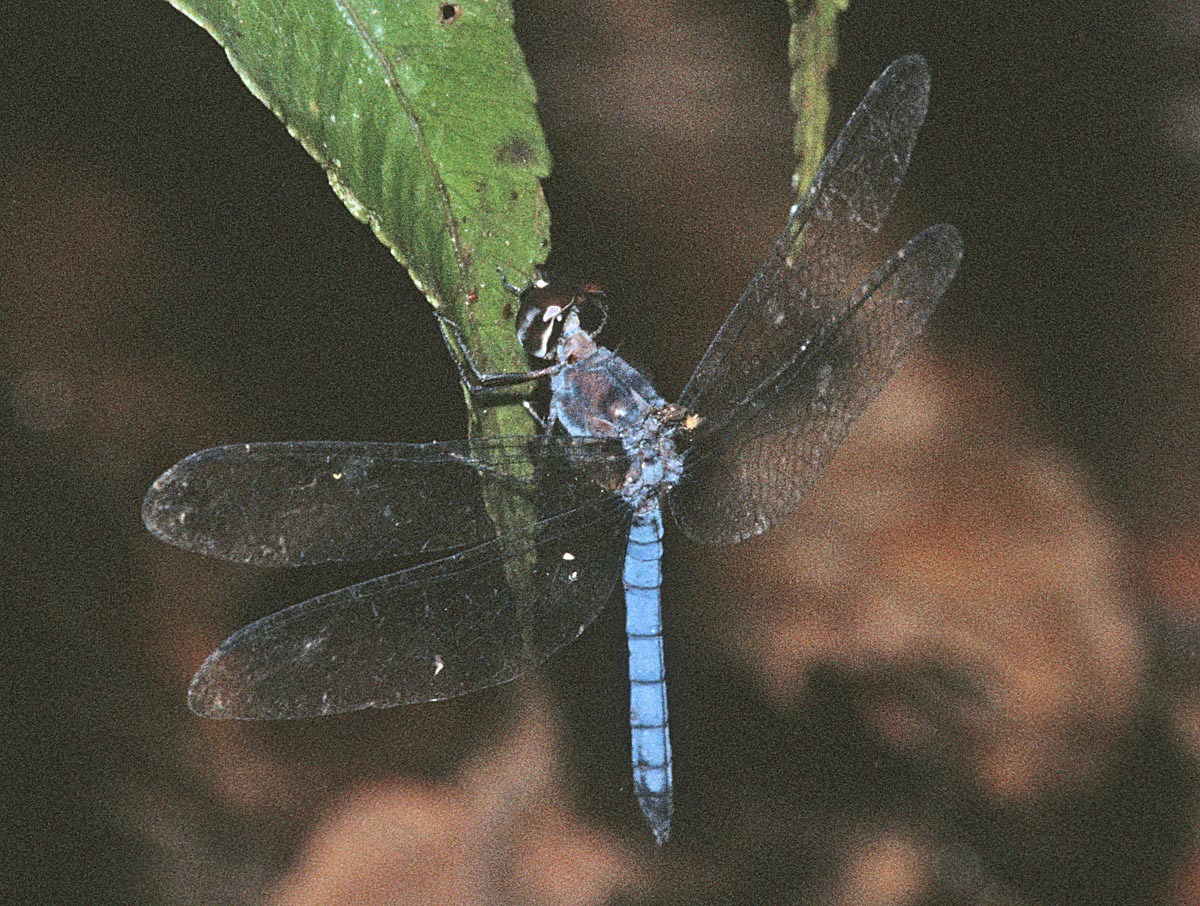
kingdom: Animalia
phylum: Arthropoda
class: Insecta
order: Odonata
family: Libellulidae
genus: Tyriobapta
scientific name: Tyriobapta laidlawi
